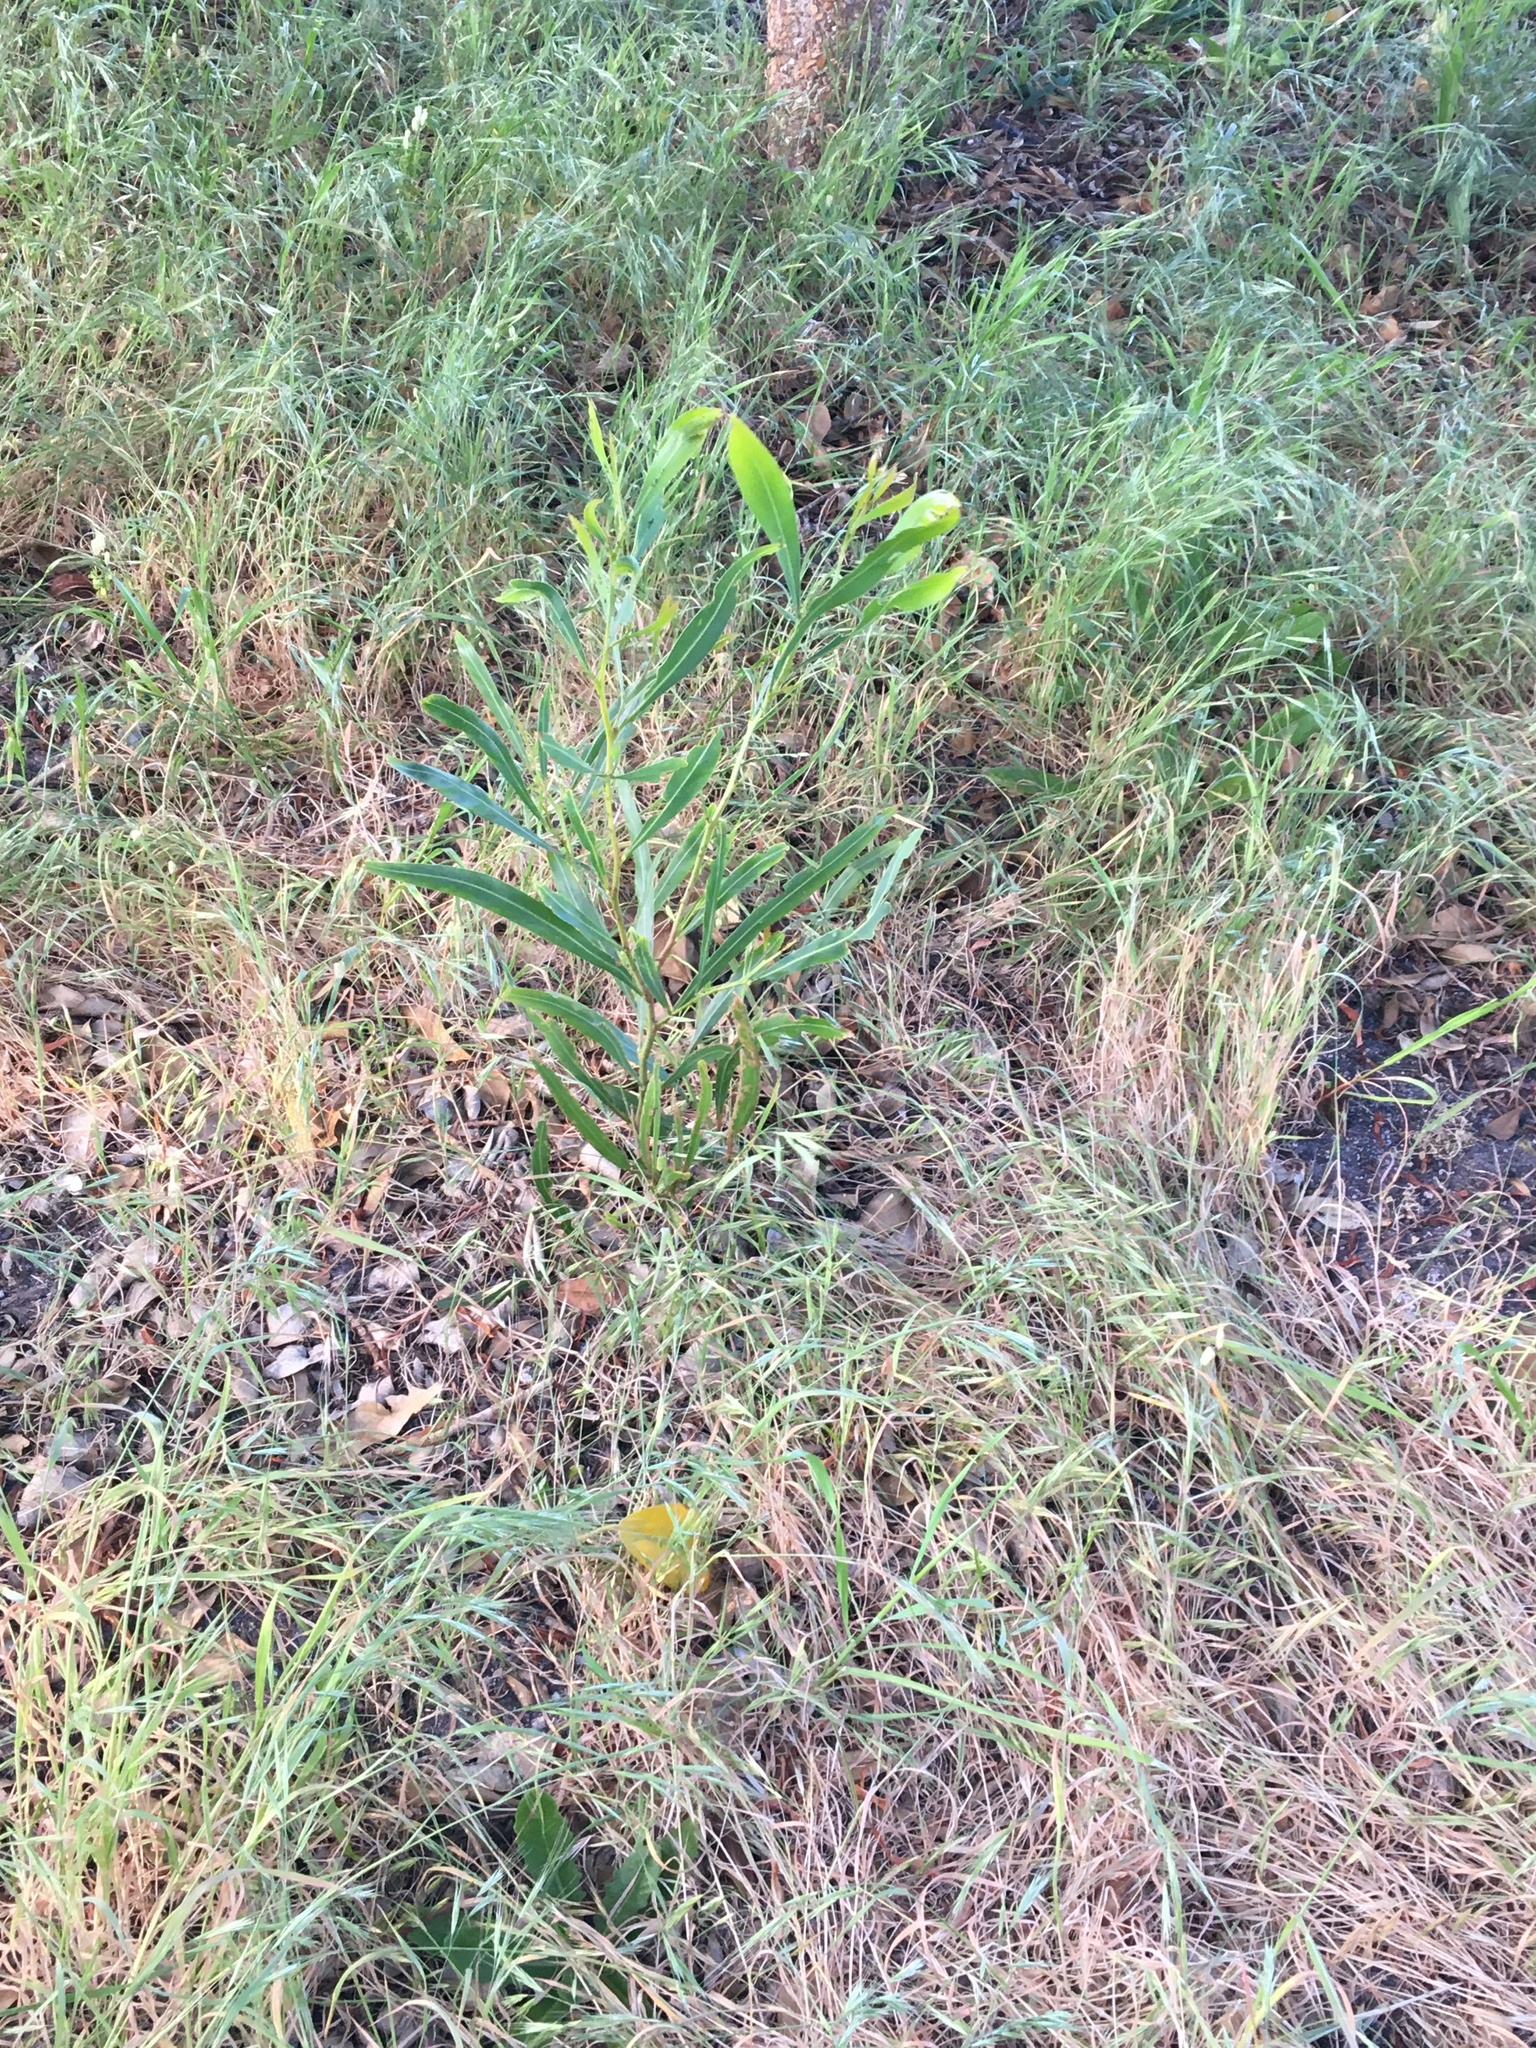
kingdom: Plantae
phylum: Tracheophyta
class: Magnoliopsida
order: Fabales
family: Fabaceae
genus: Acacia
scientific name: Acacia saligna
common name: Orange wattle
